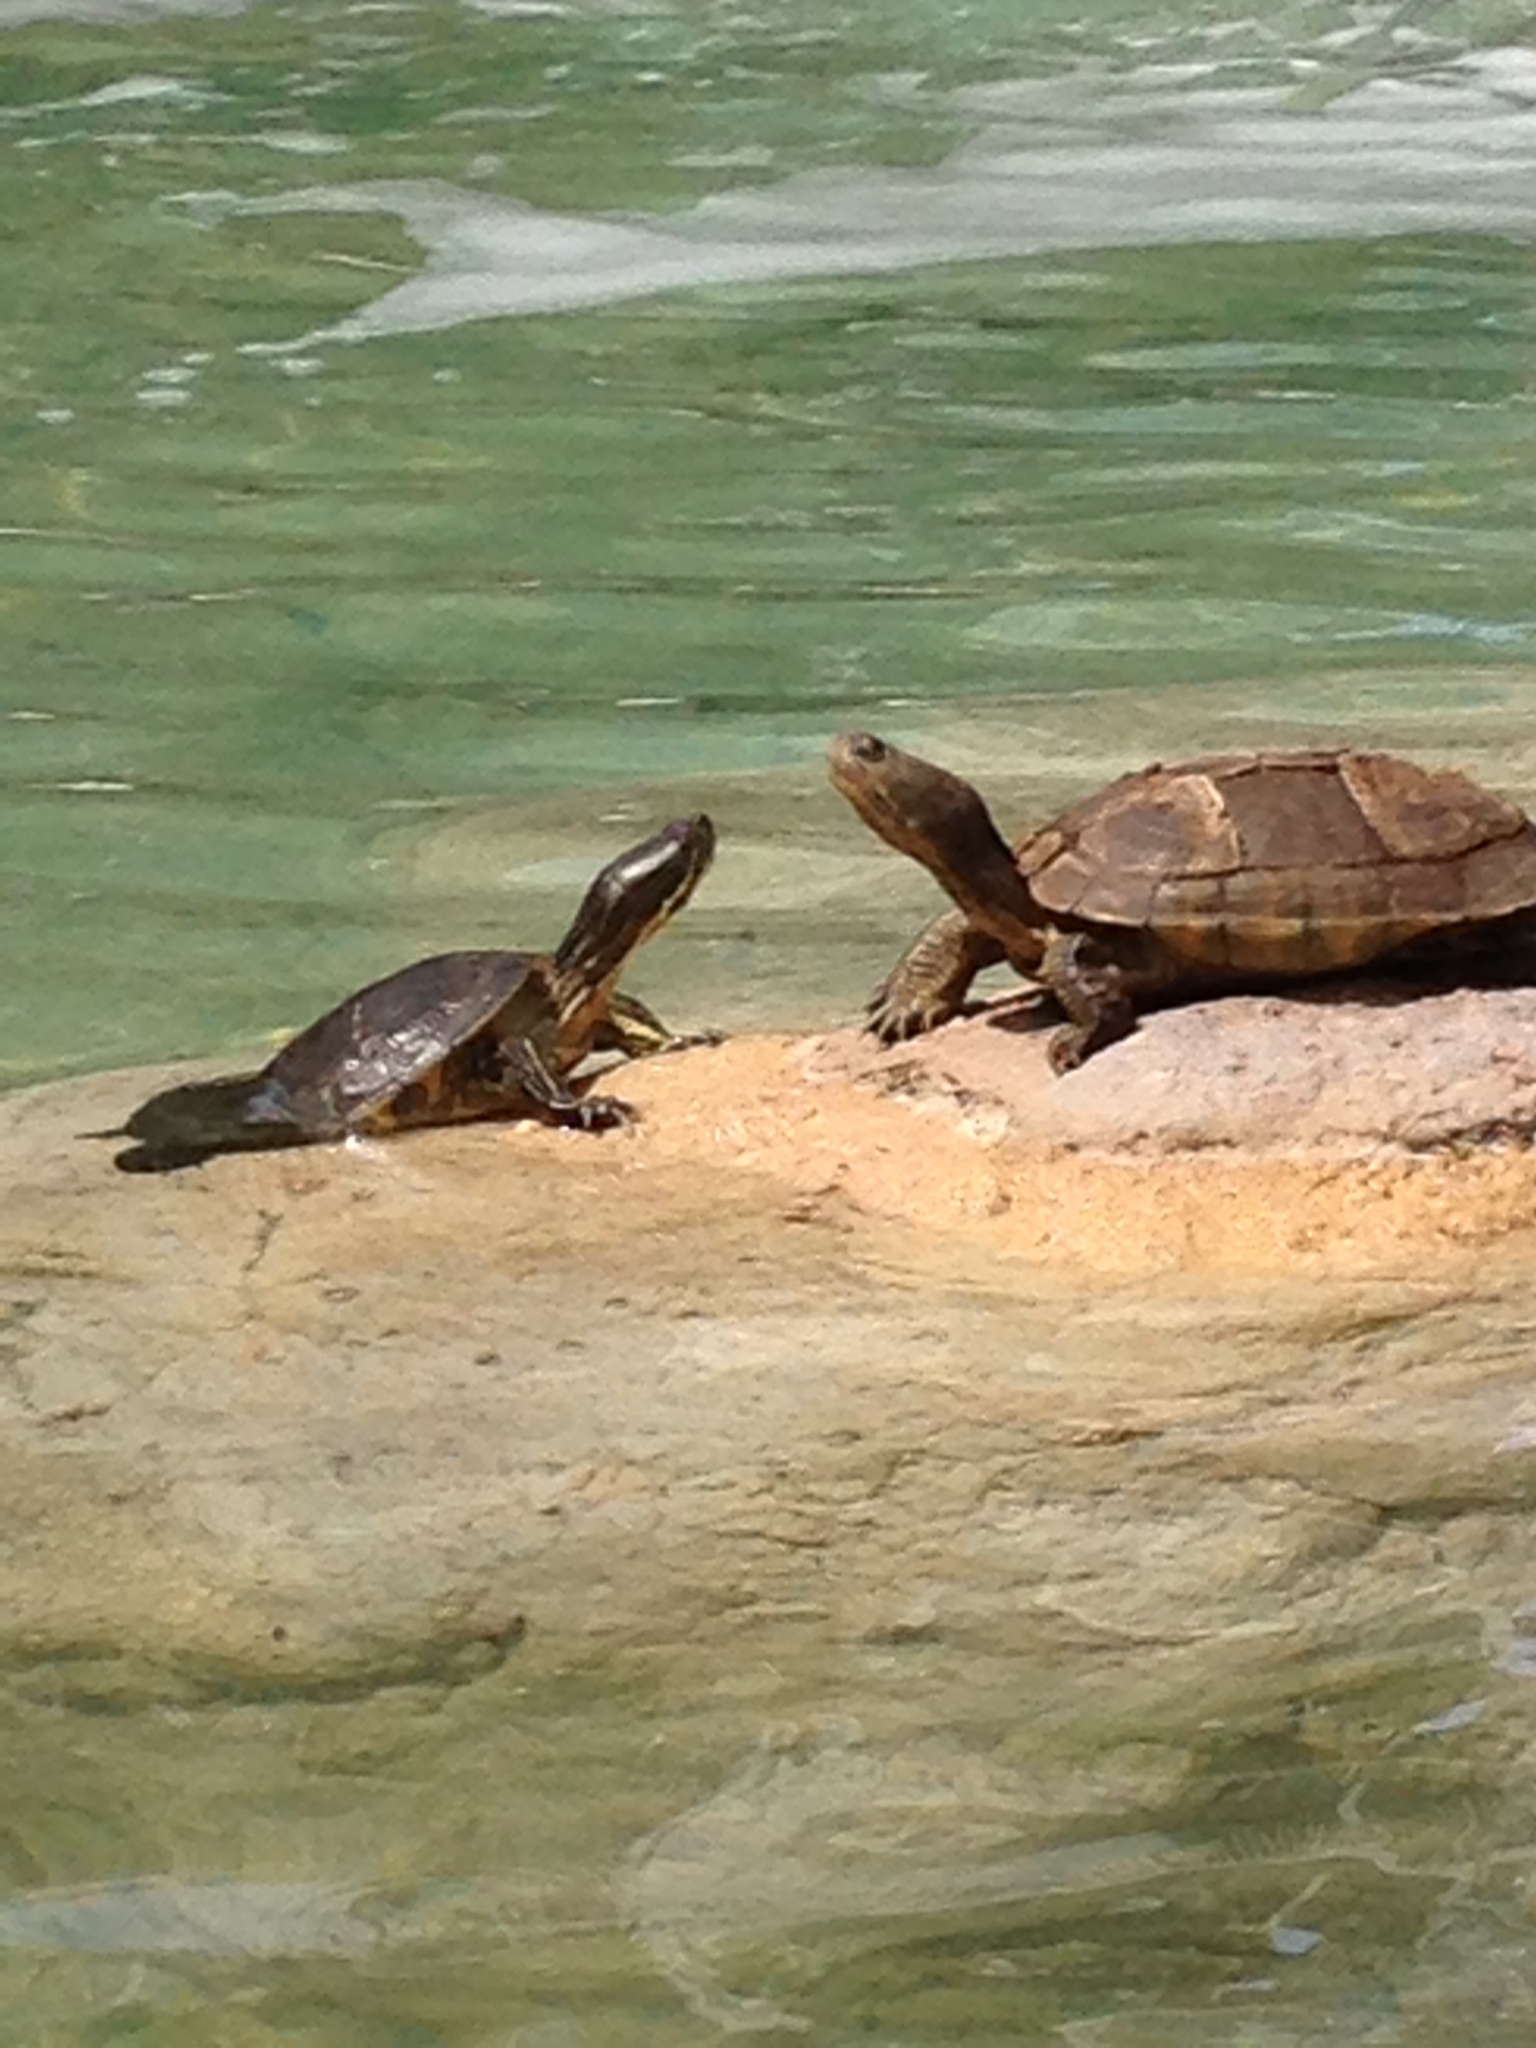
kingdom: Animalia
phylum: Chordata
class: Testudines
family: Emydidae
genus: Trachemys
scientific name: Trachemys decussata
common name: North antillean slider
